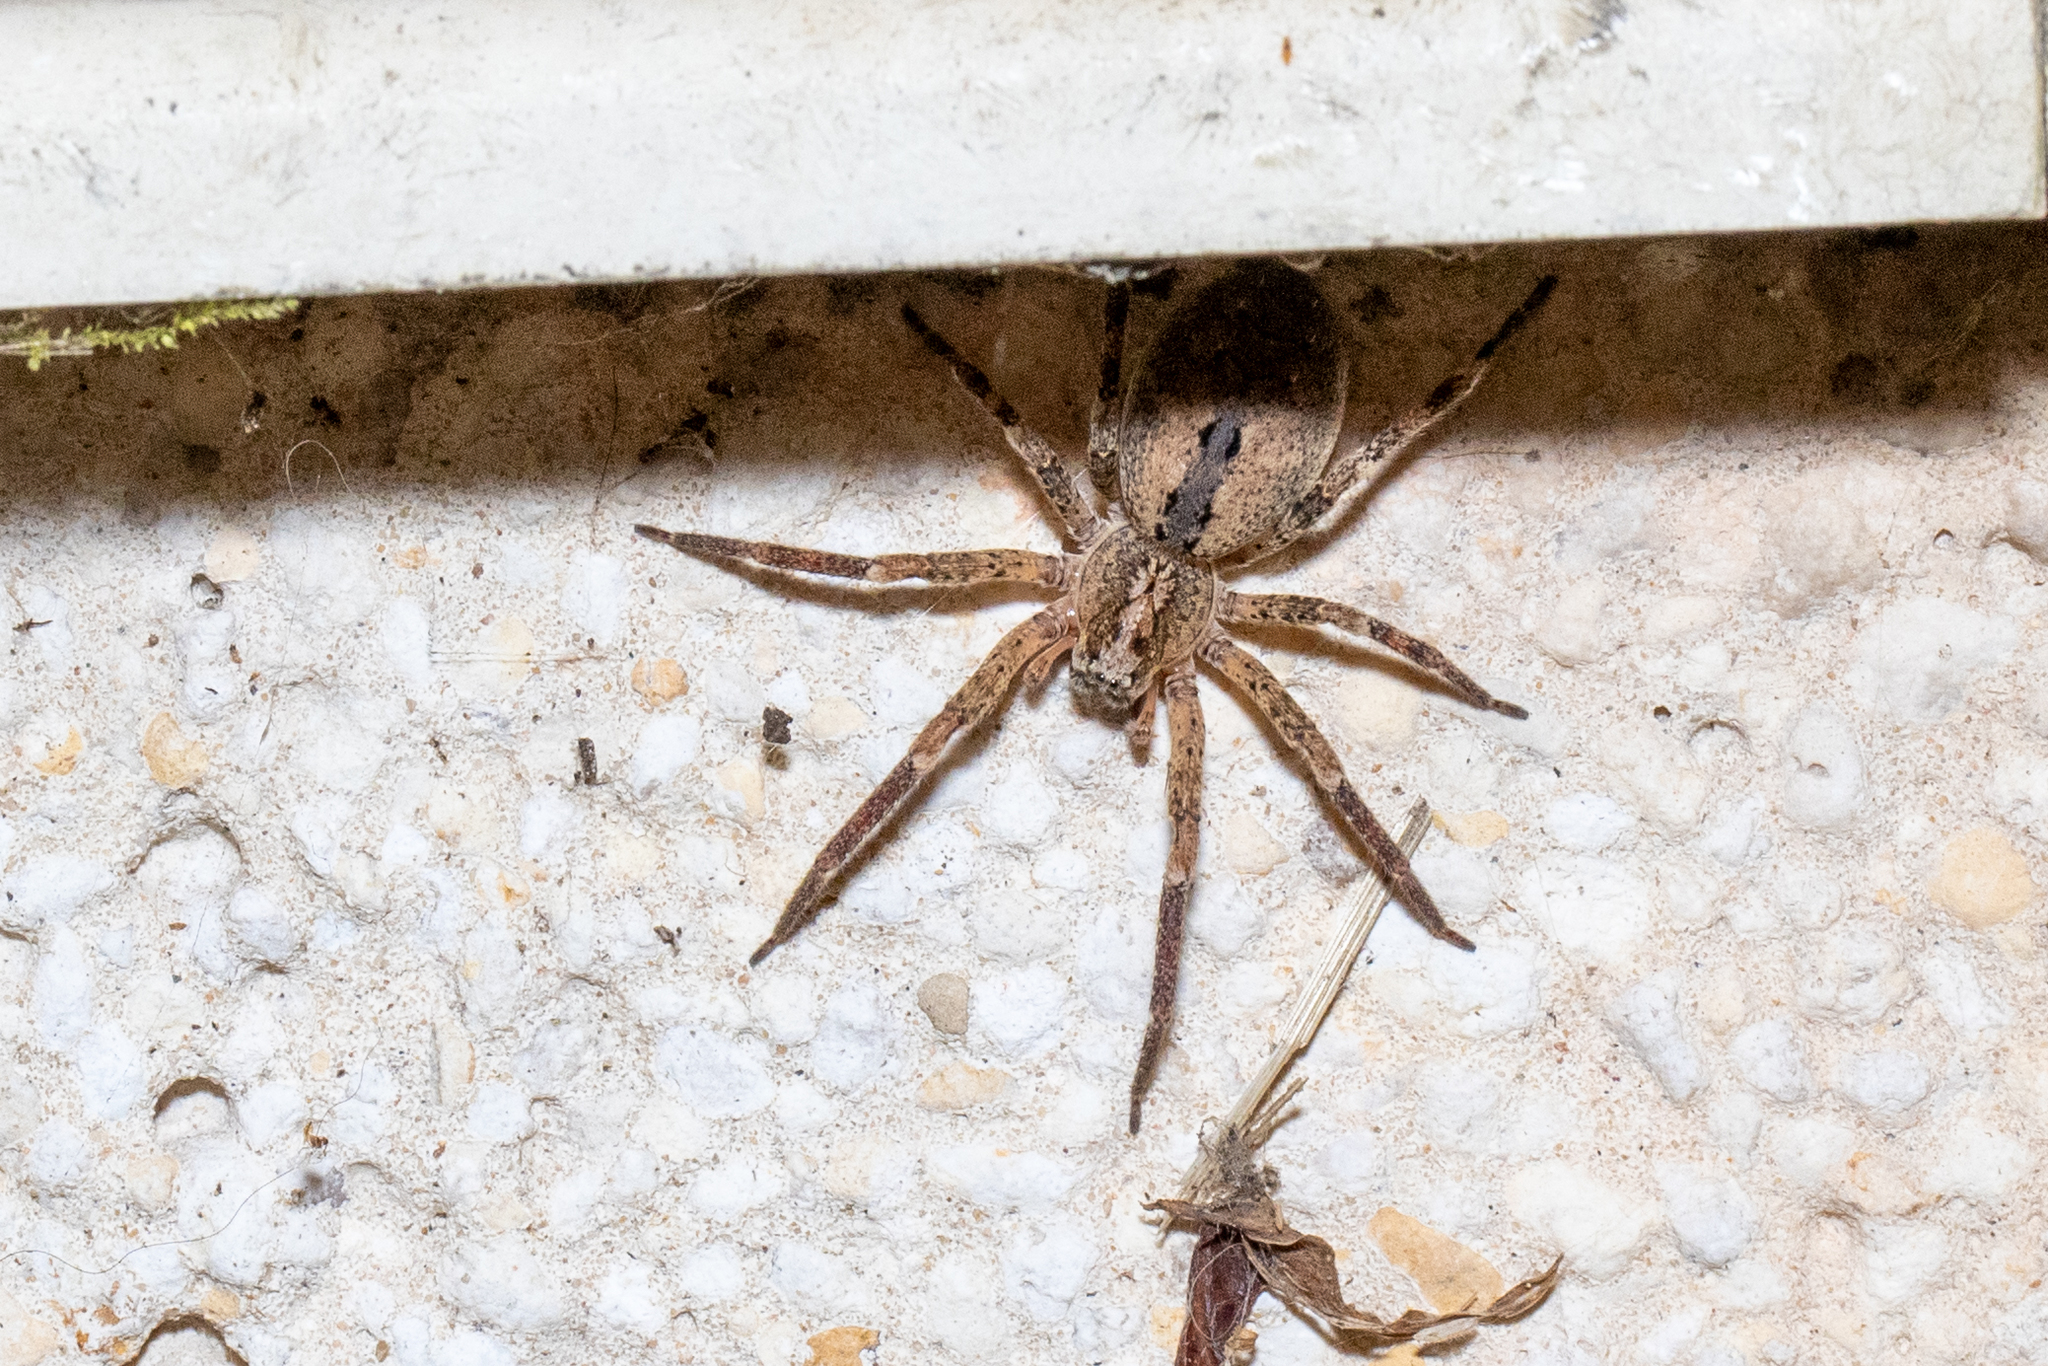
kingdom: Animalia
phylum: Arthropoda
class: Arachnida
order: Araneae
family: Zoropsidae
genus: Zoropsis
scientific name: Zoropsis spinimana
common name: Zoropsid spider
